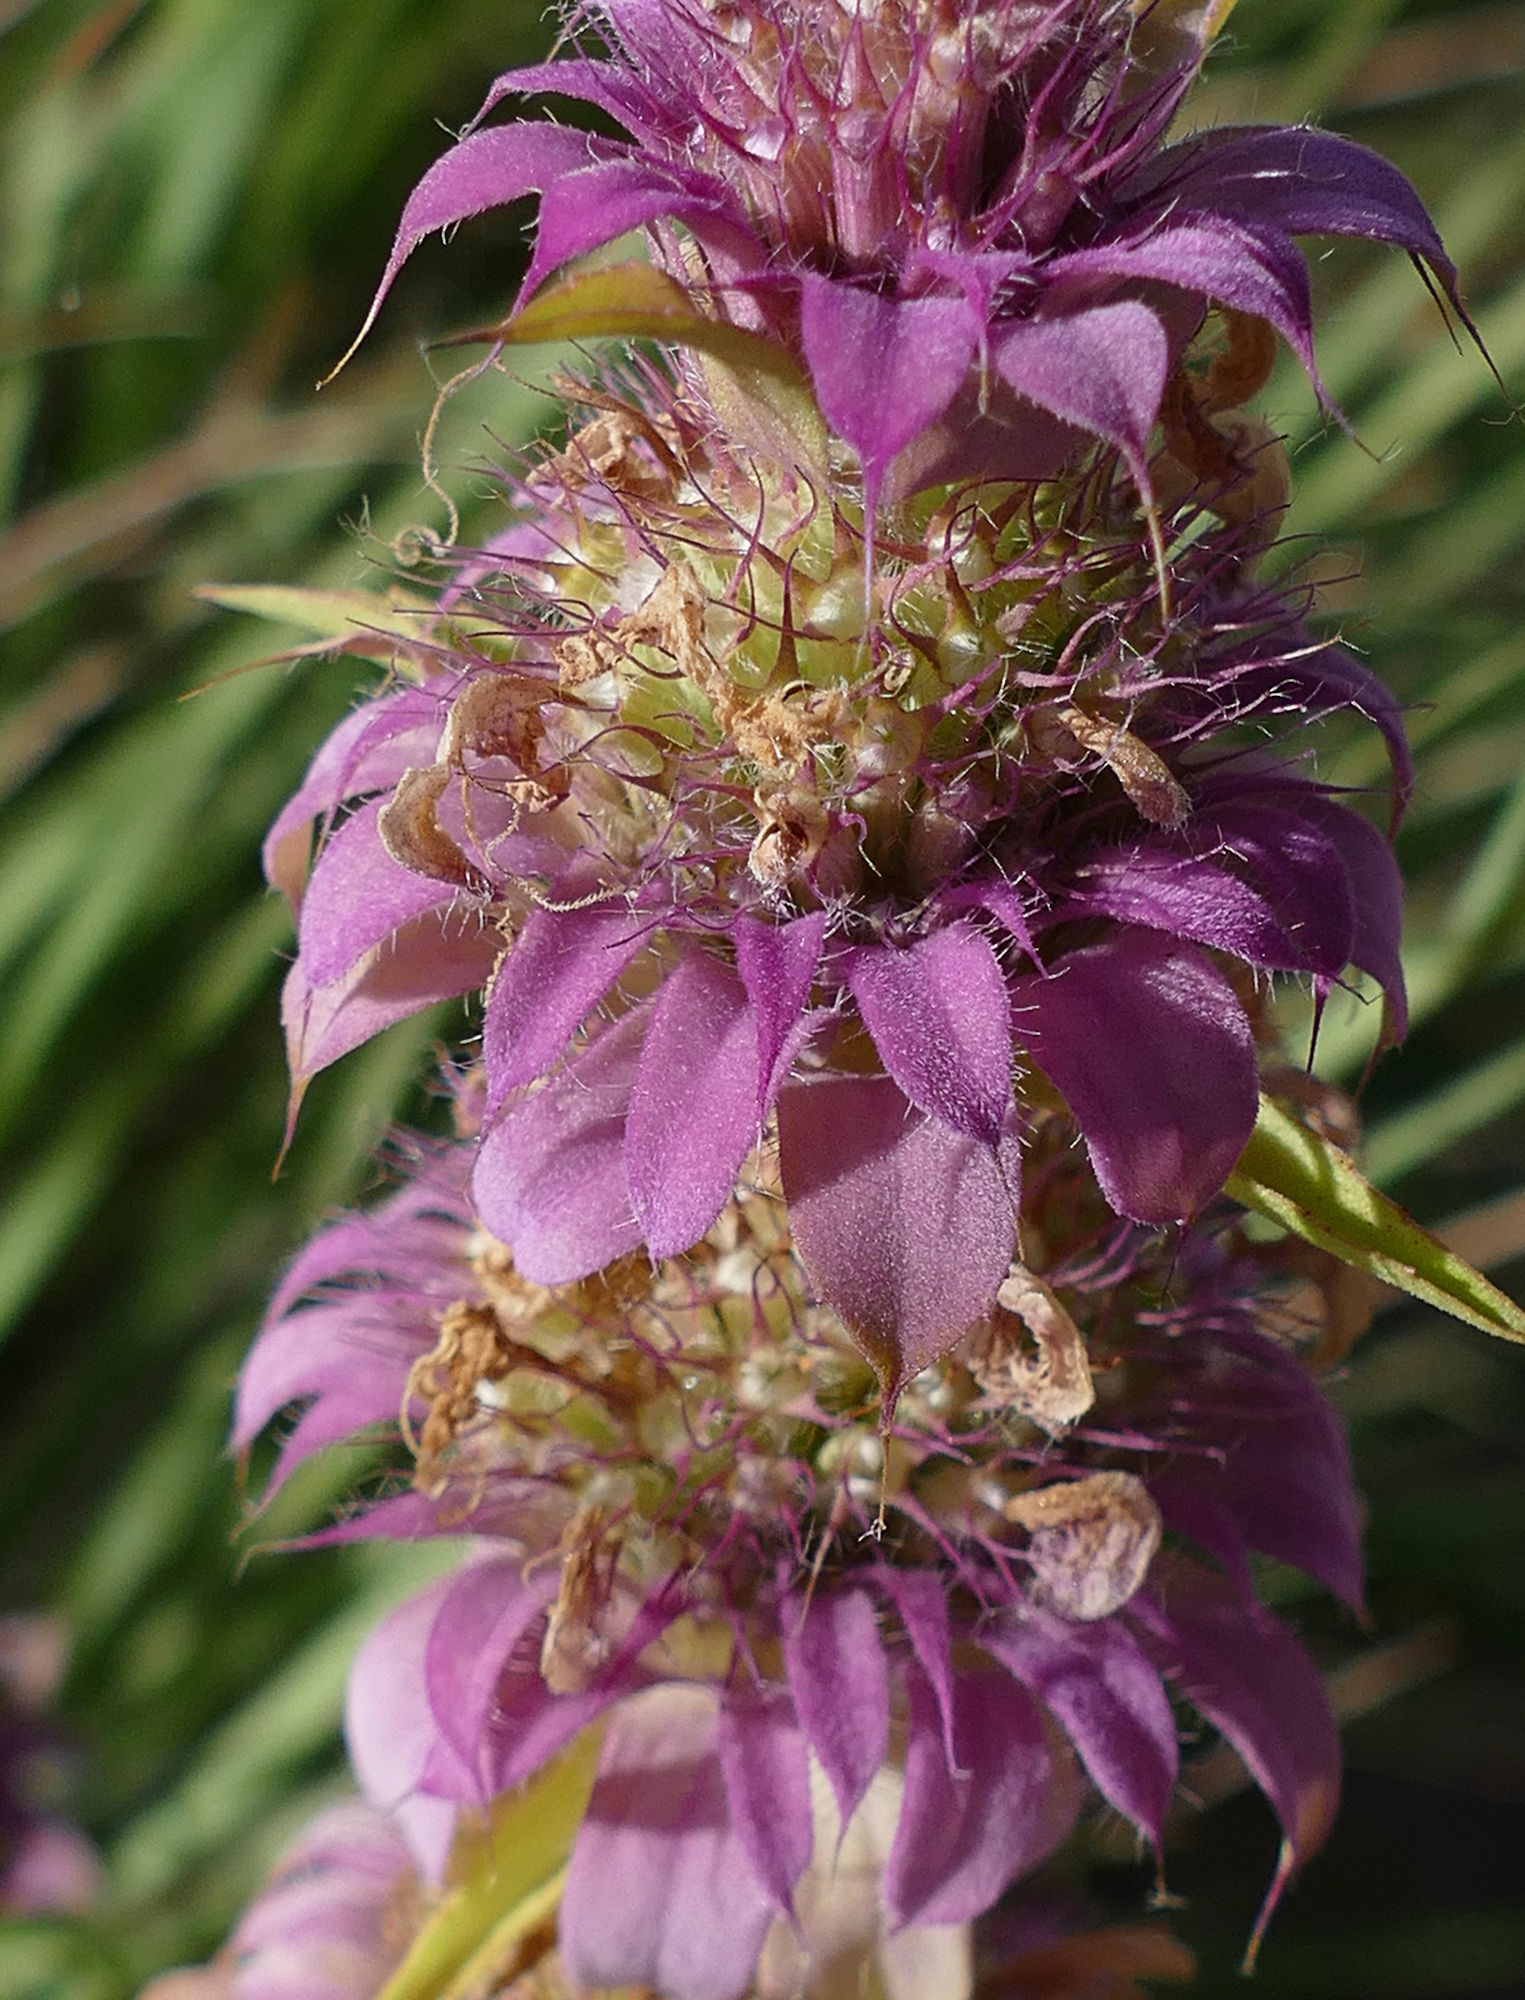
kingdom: Plantae
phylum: Tracheophyta
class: Magnoliopsida
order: Lamiales
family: Lamiaceae
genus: Monarda
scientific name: Monarda citriodora
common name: Lemon beebalm
